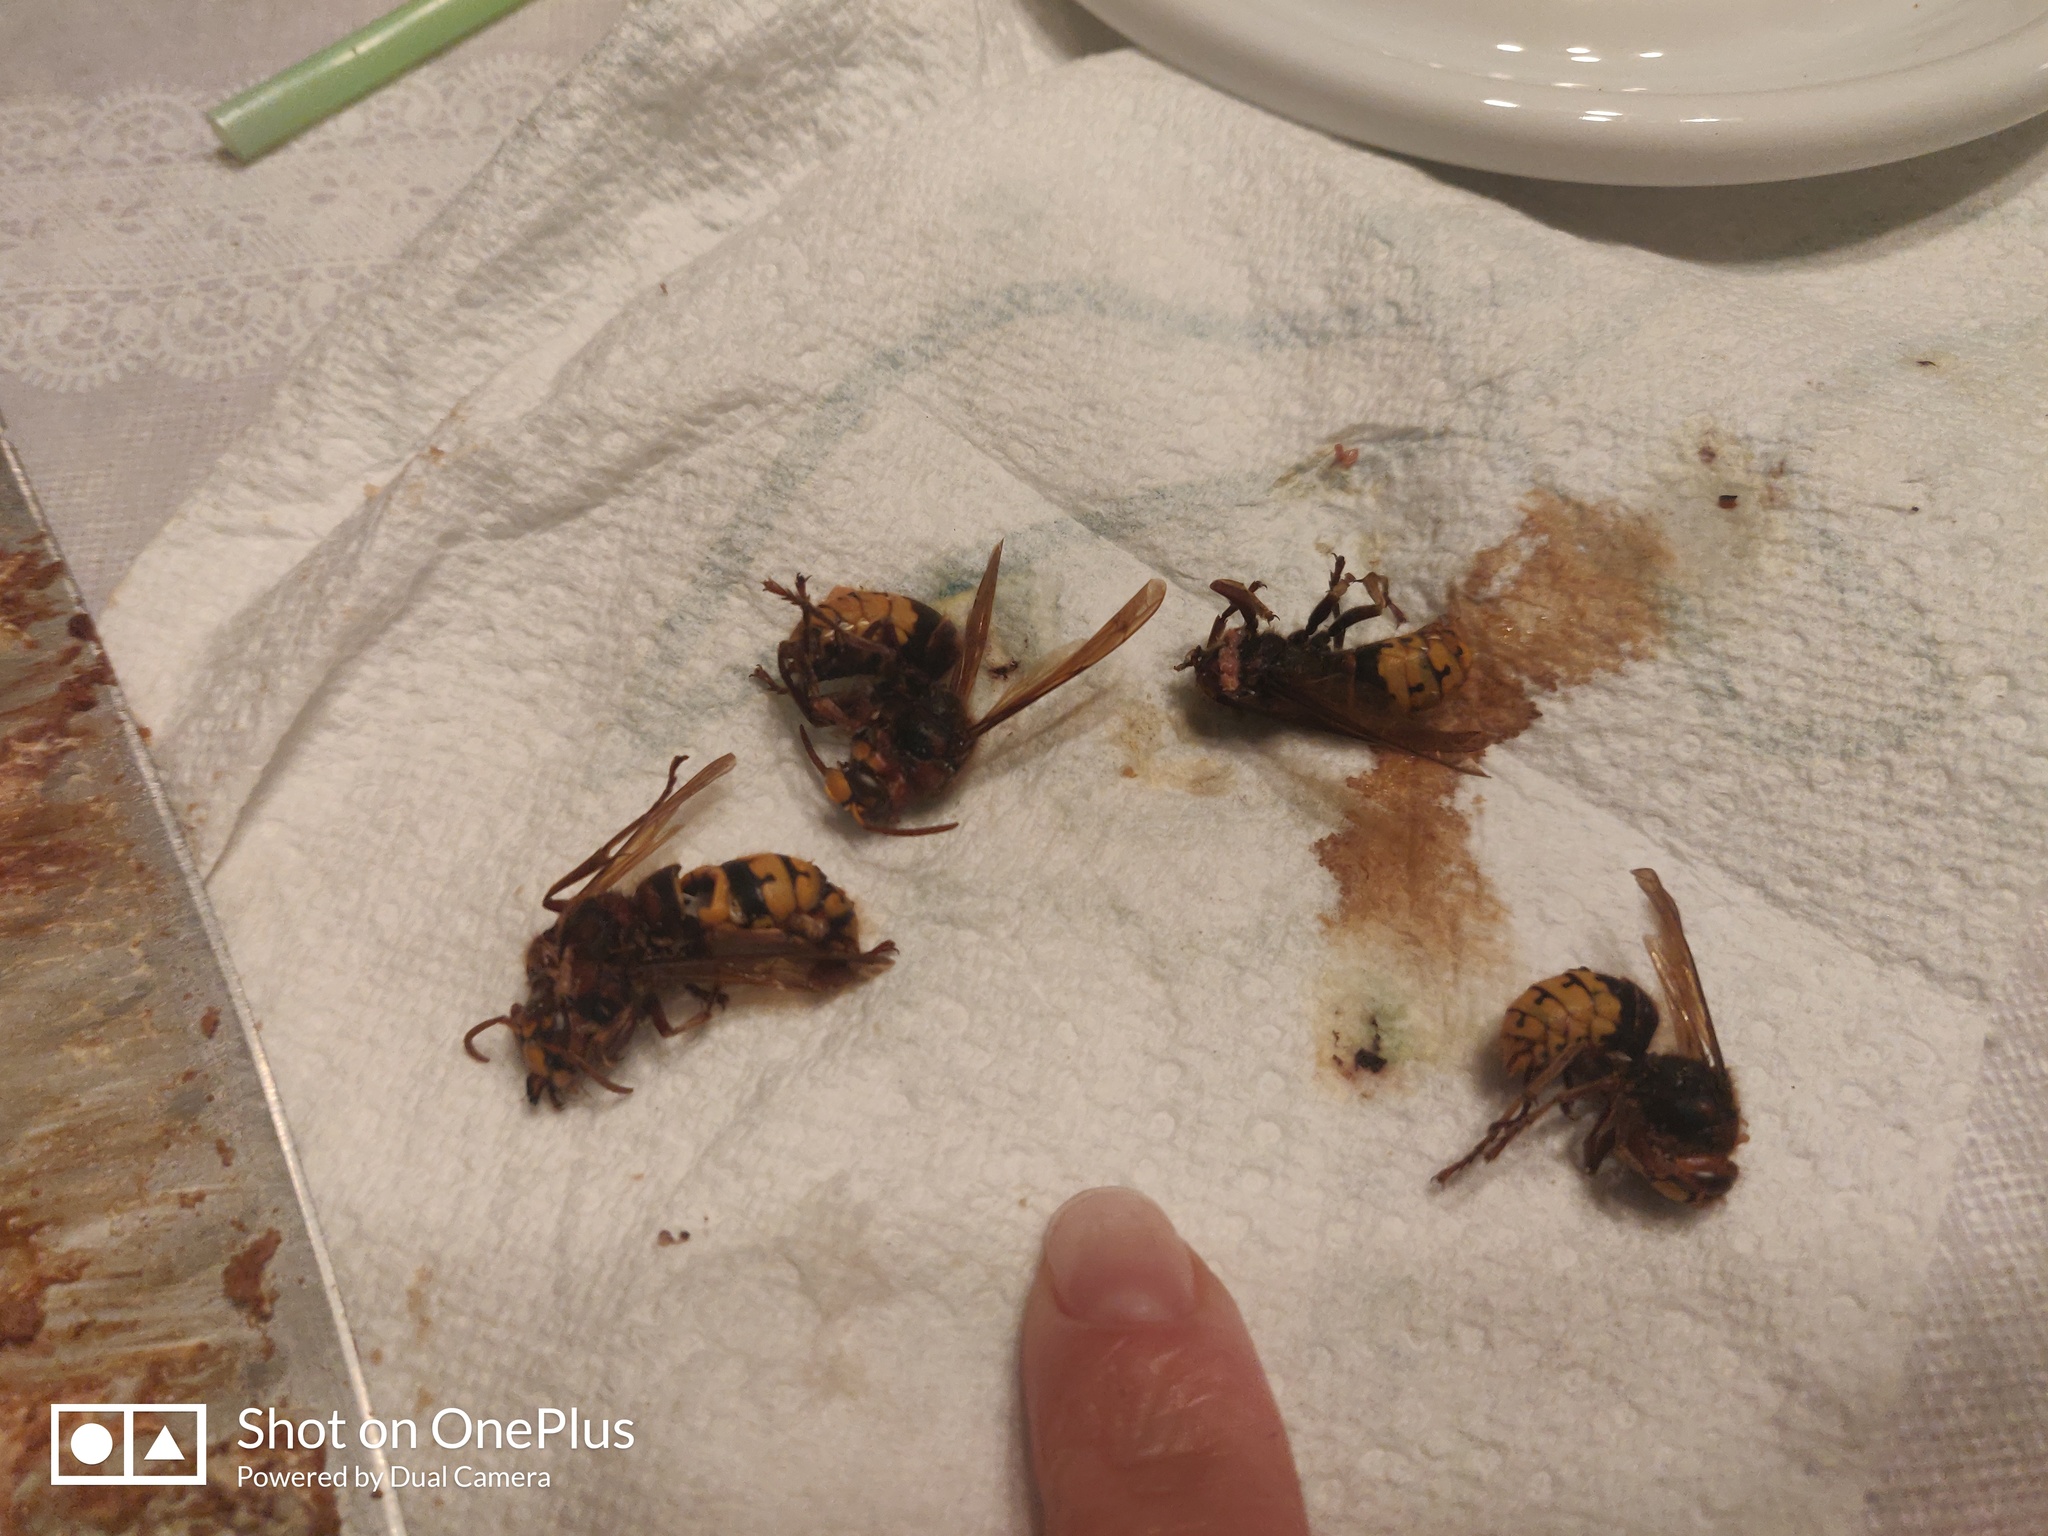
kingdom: Animalia
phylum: Arthropoda
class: Insecta
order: Hymenoptera
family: Vespidae
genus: Vespa
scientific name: Vespa crabro
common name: Hornet
